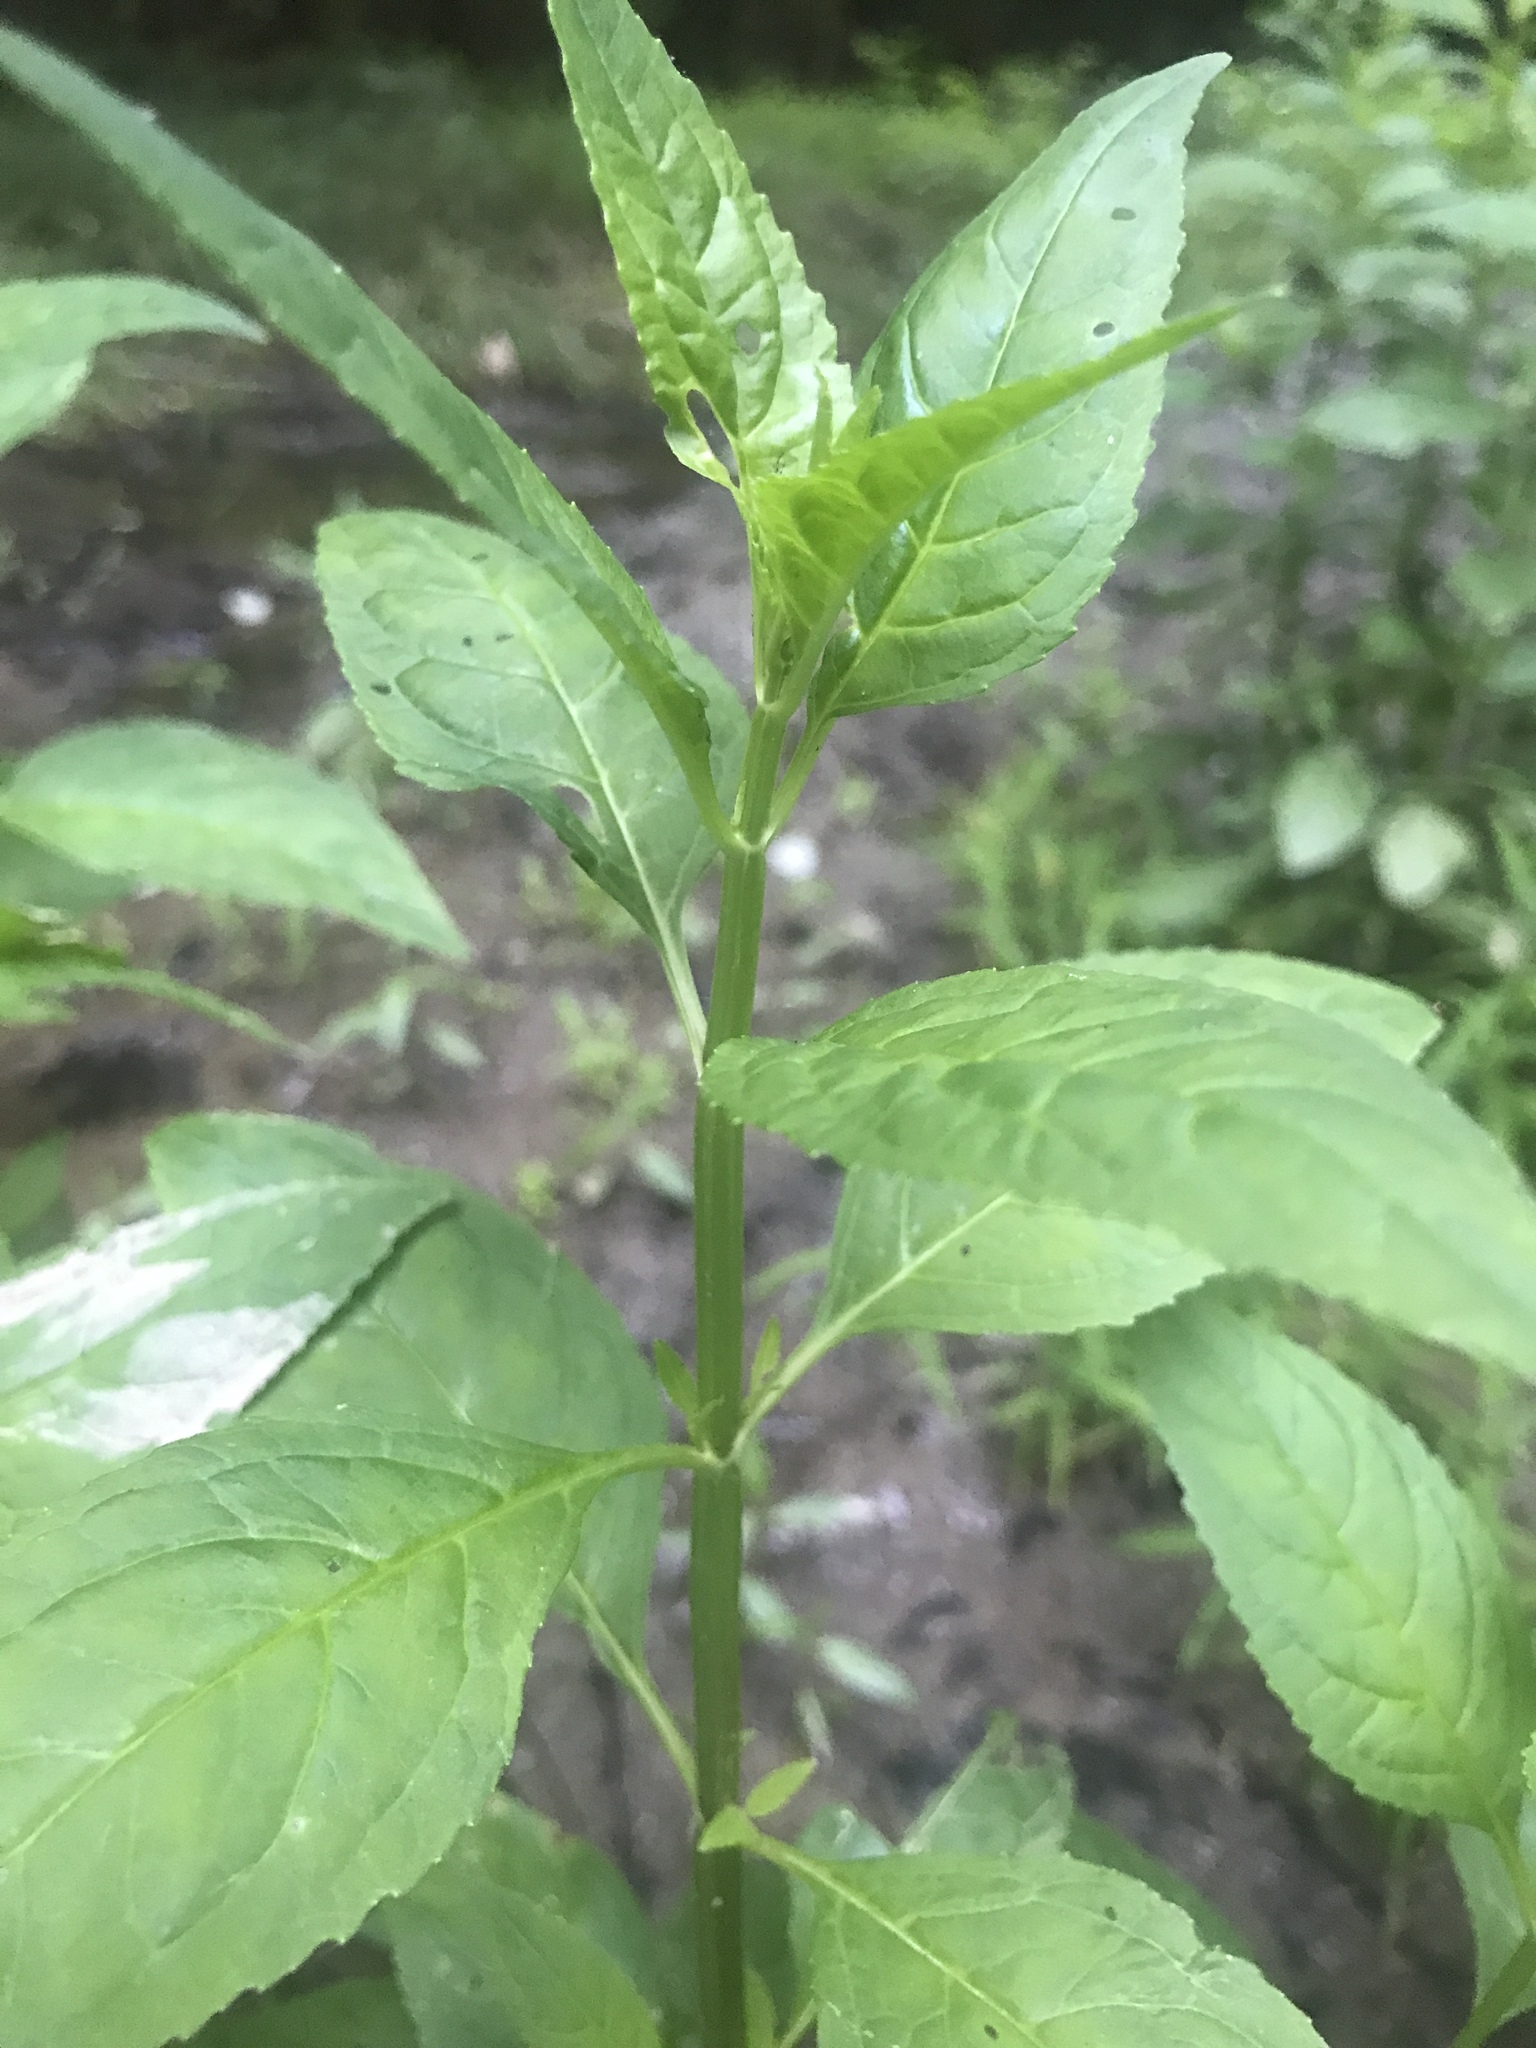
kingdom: Plantae
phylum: Tracheophyta
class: Magnoliopsida
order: Lamiales
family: Phrymaceae
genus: Mimulus
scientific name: Mimulus alatus
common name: Sharp-wing monkey-flower
